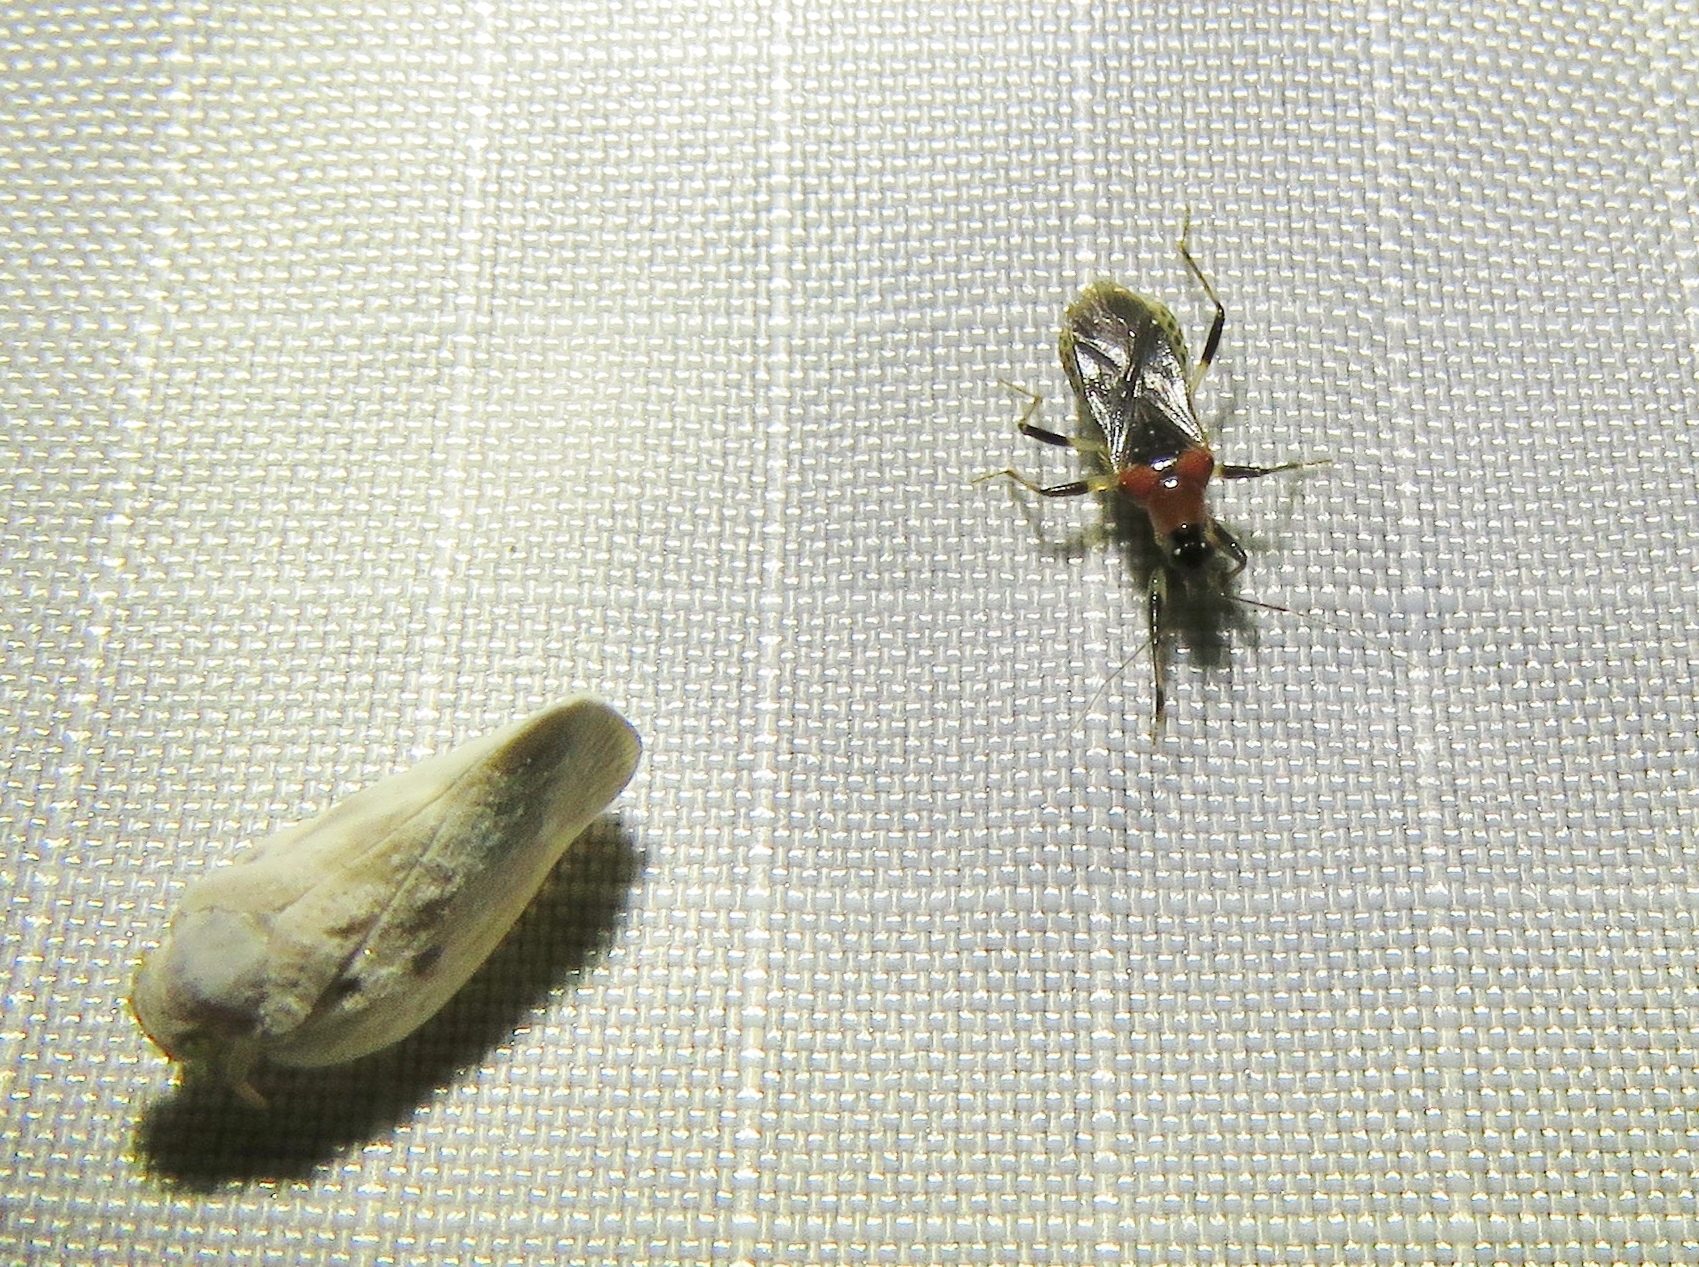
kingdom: Animalia
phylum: Arthropoda
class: Insecta
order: Hemiptera
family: Nabidae
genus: Alloeorhynchus
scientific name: Alloeorhynchus trimacula
